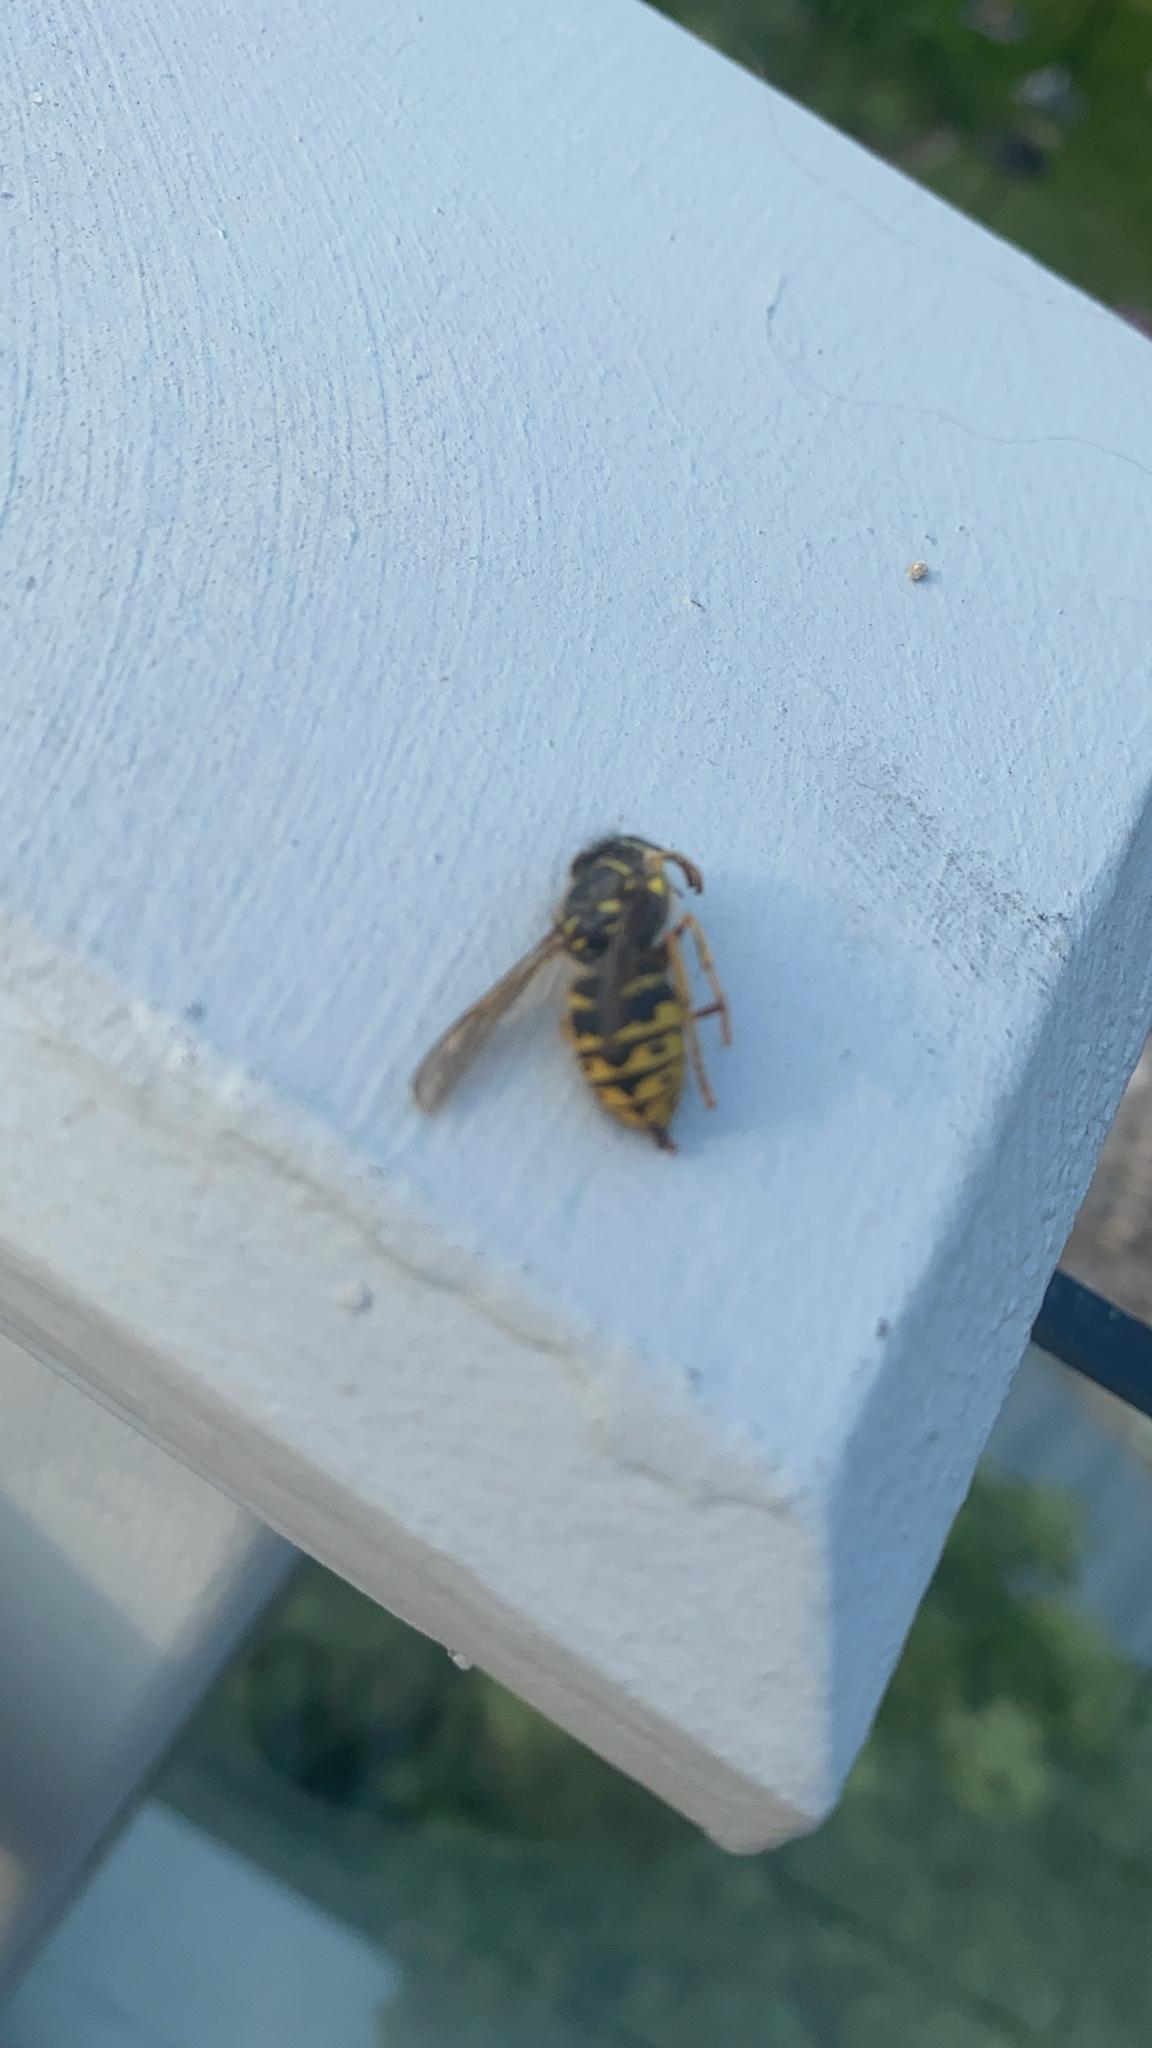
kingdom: Animalia
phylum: Arthropoda
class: Insecta
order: Hymenoptera
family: Vespidae
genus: Dolichovespula
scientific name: Dolichovespula arenaria
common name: Aerial yellowjacket
